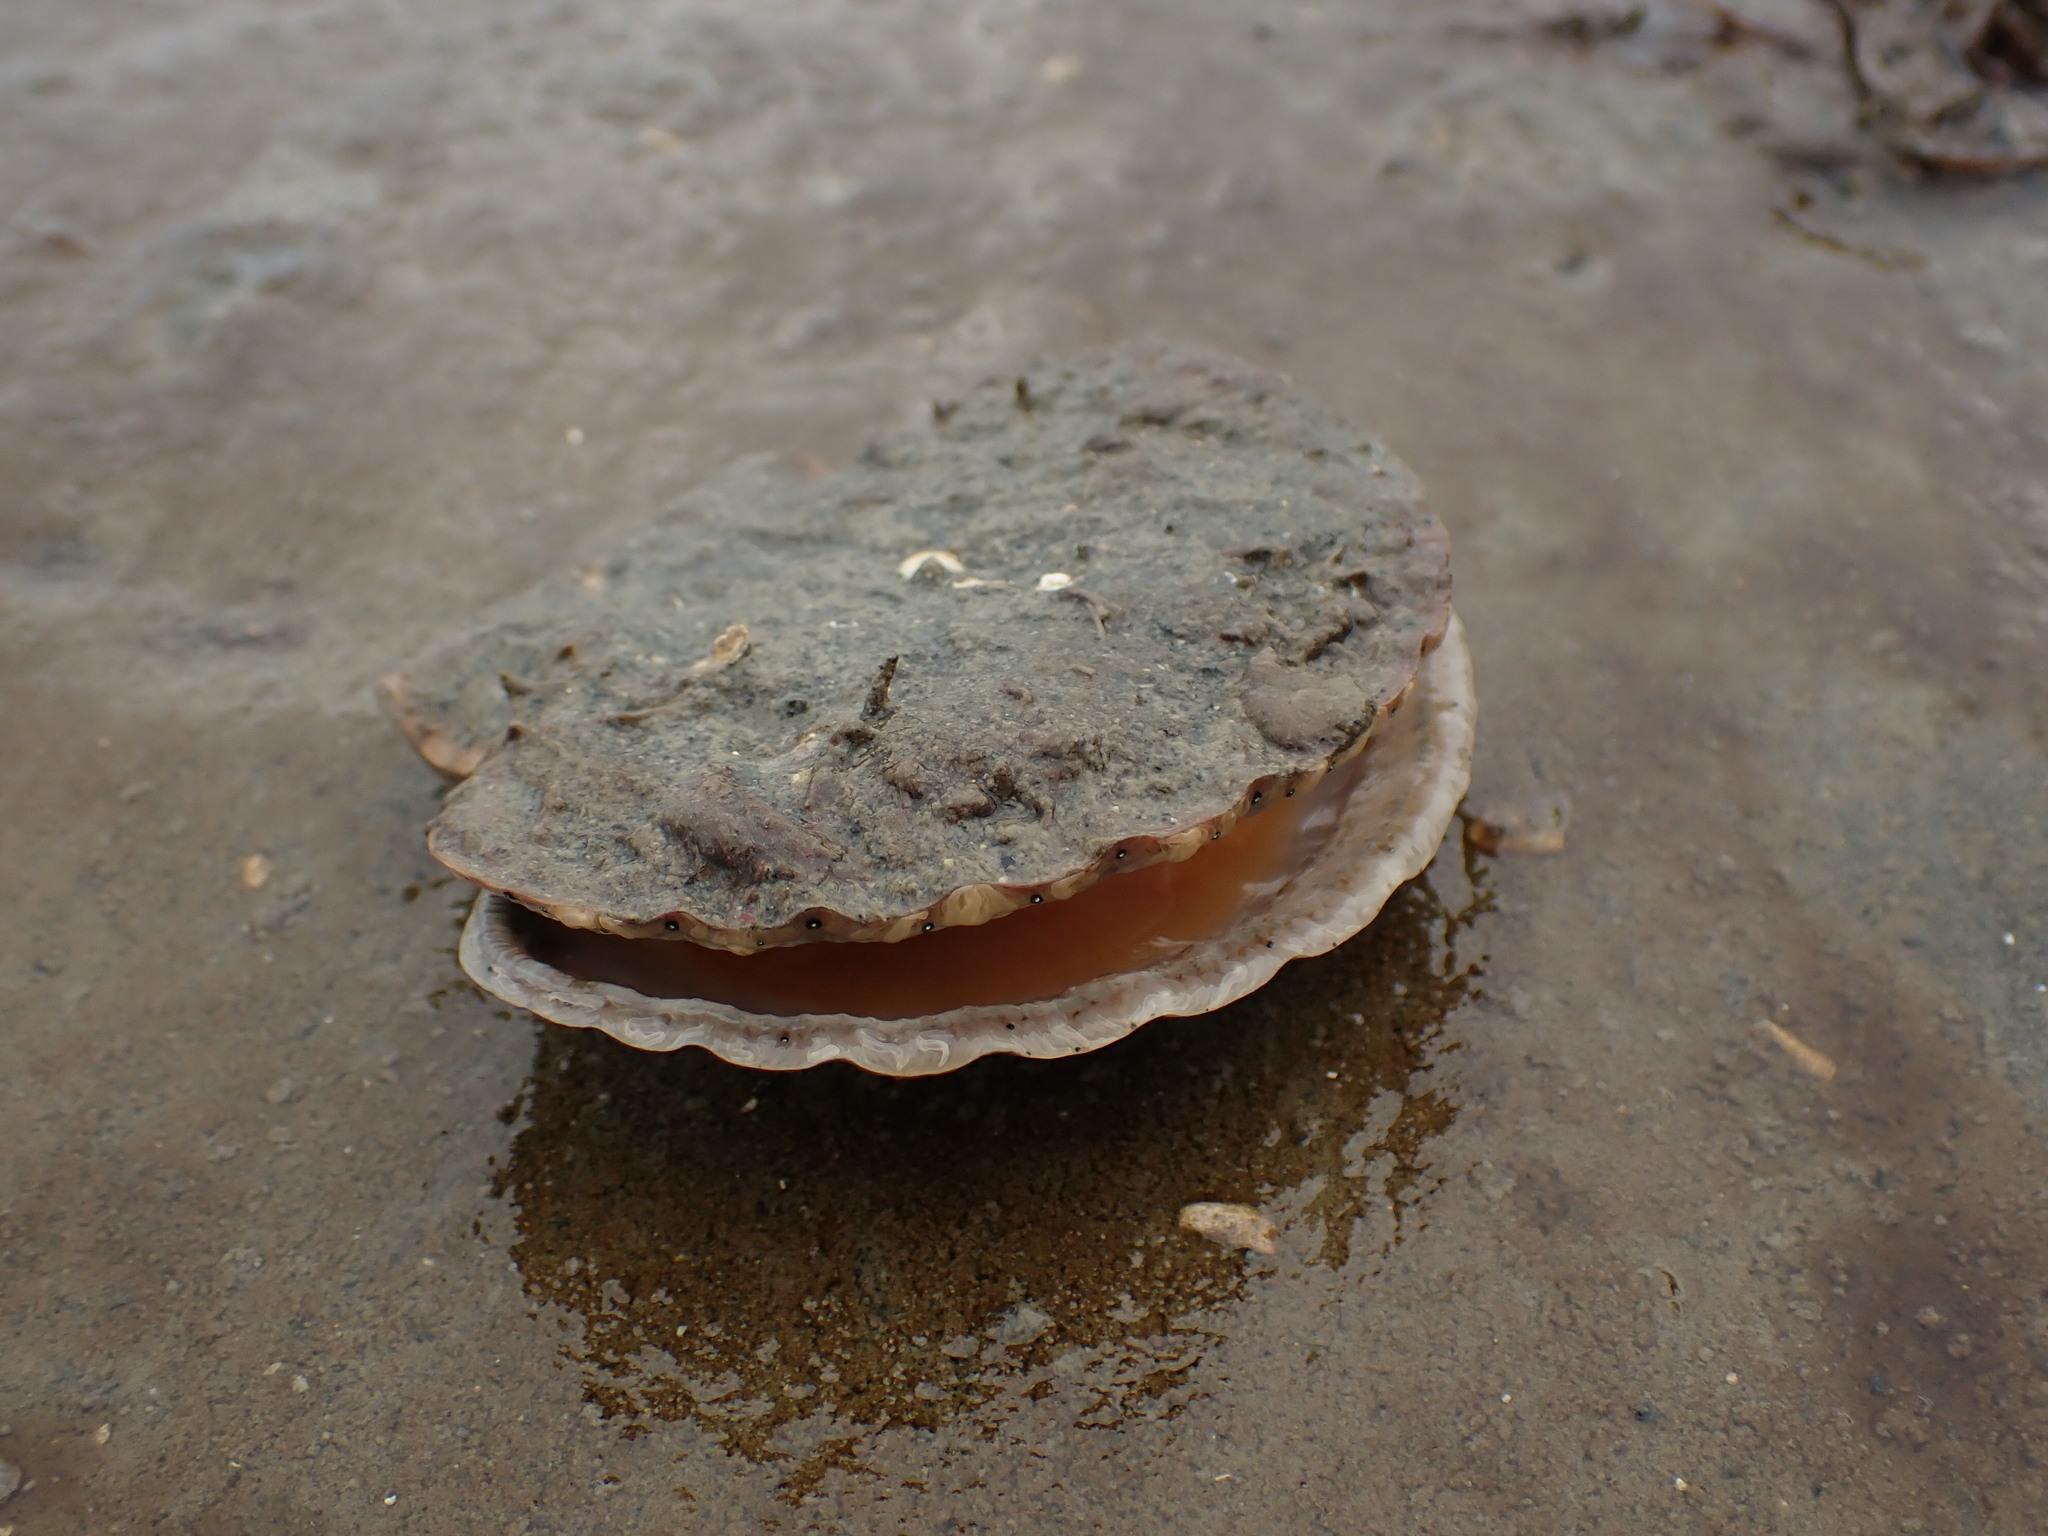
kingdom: Animalia
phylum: Mollusca
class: Bivalvia
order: Pectinida
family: Pectinidae
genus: Pecten
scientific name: Pecten novaezelandiae
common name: New zealand scallop
